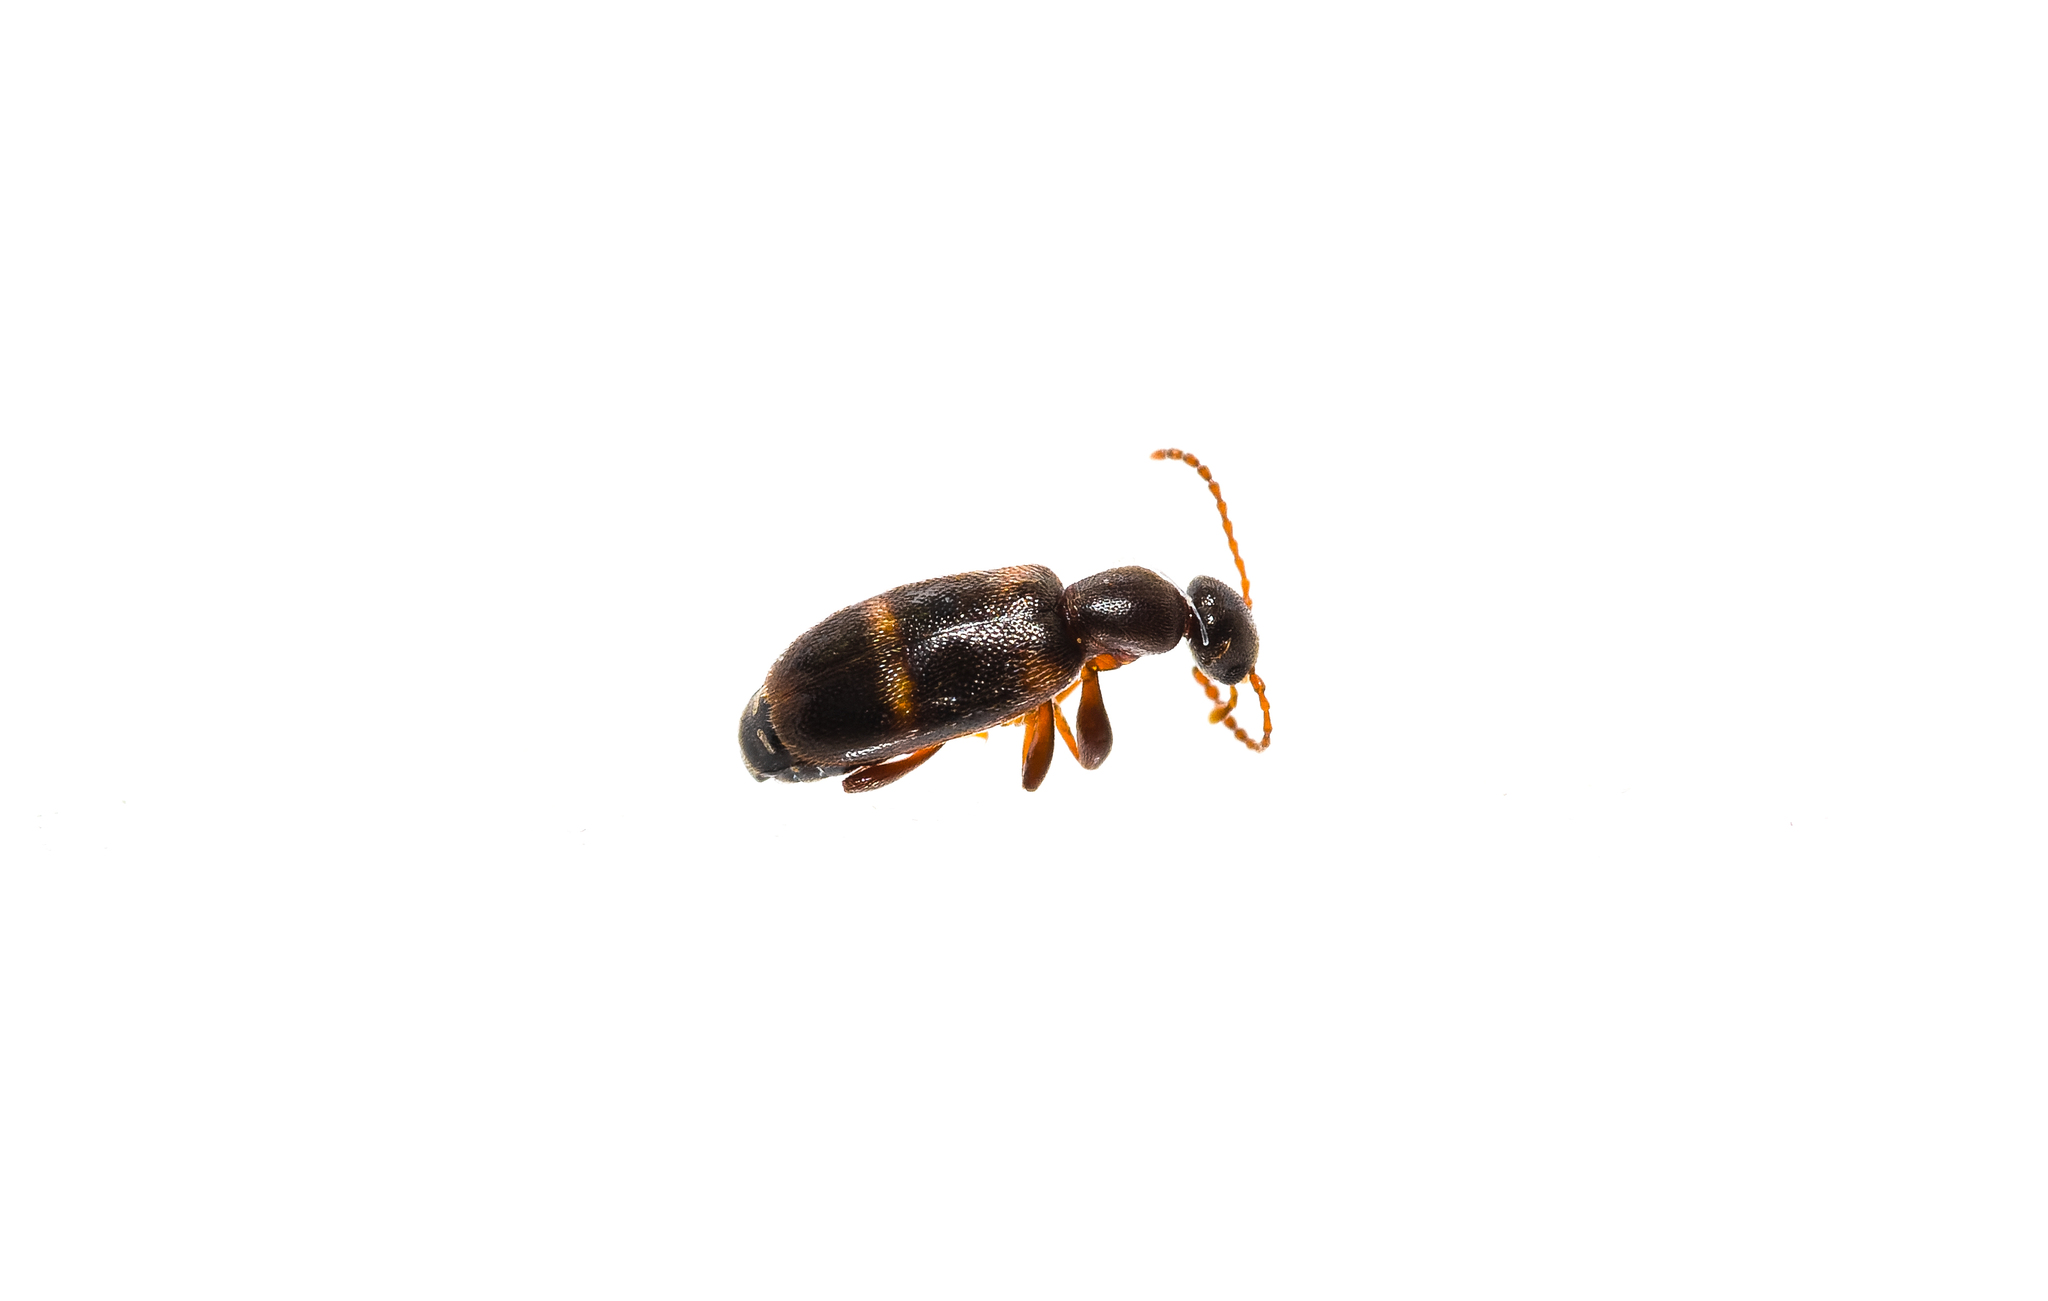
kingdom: Animalia
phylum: Arthropoda
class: Insecta
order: Coleoptera
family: Anthicidae
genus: Anthicus
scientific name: Anthicus tristis
